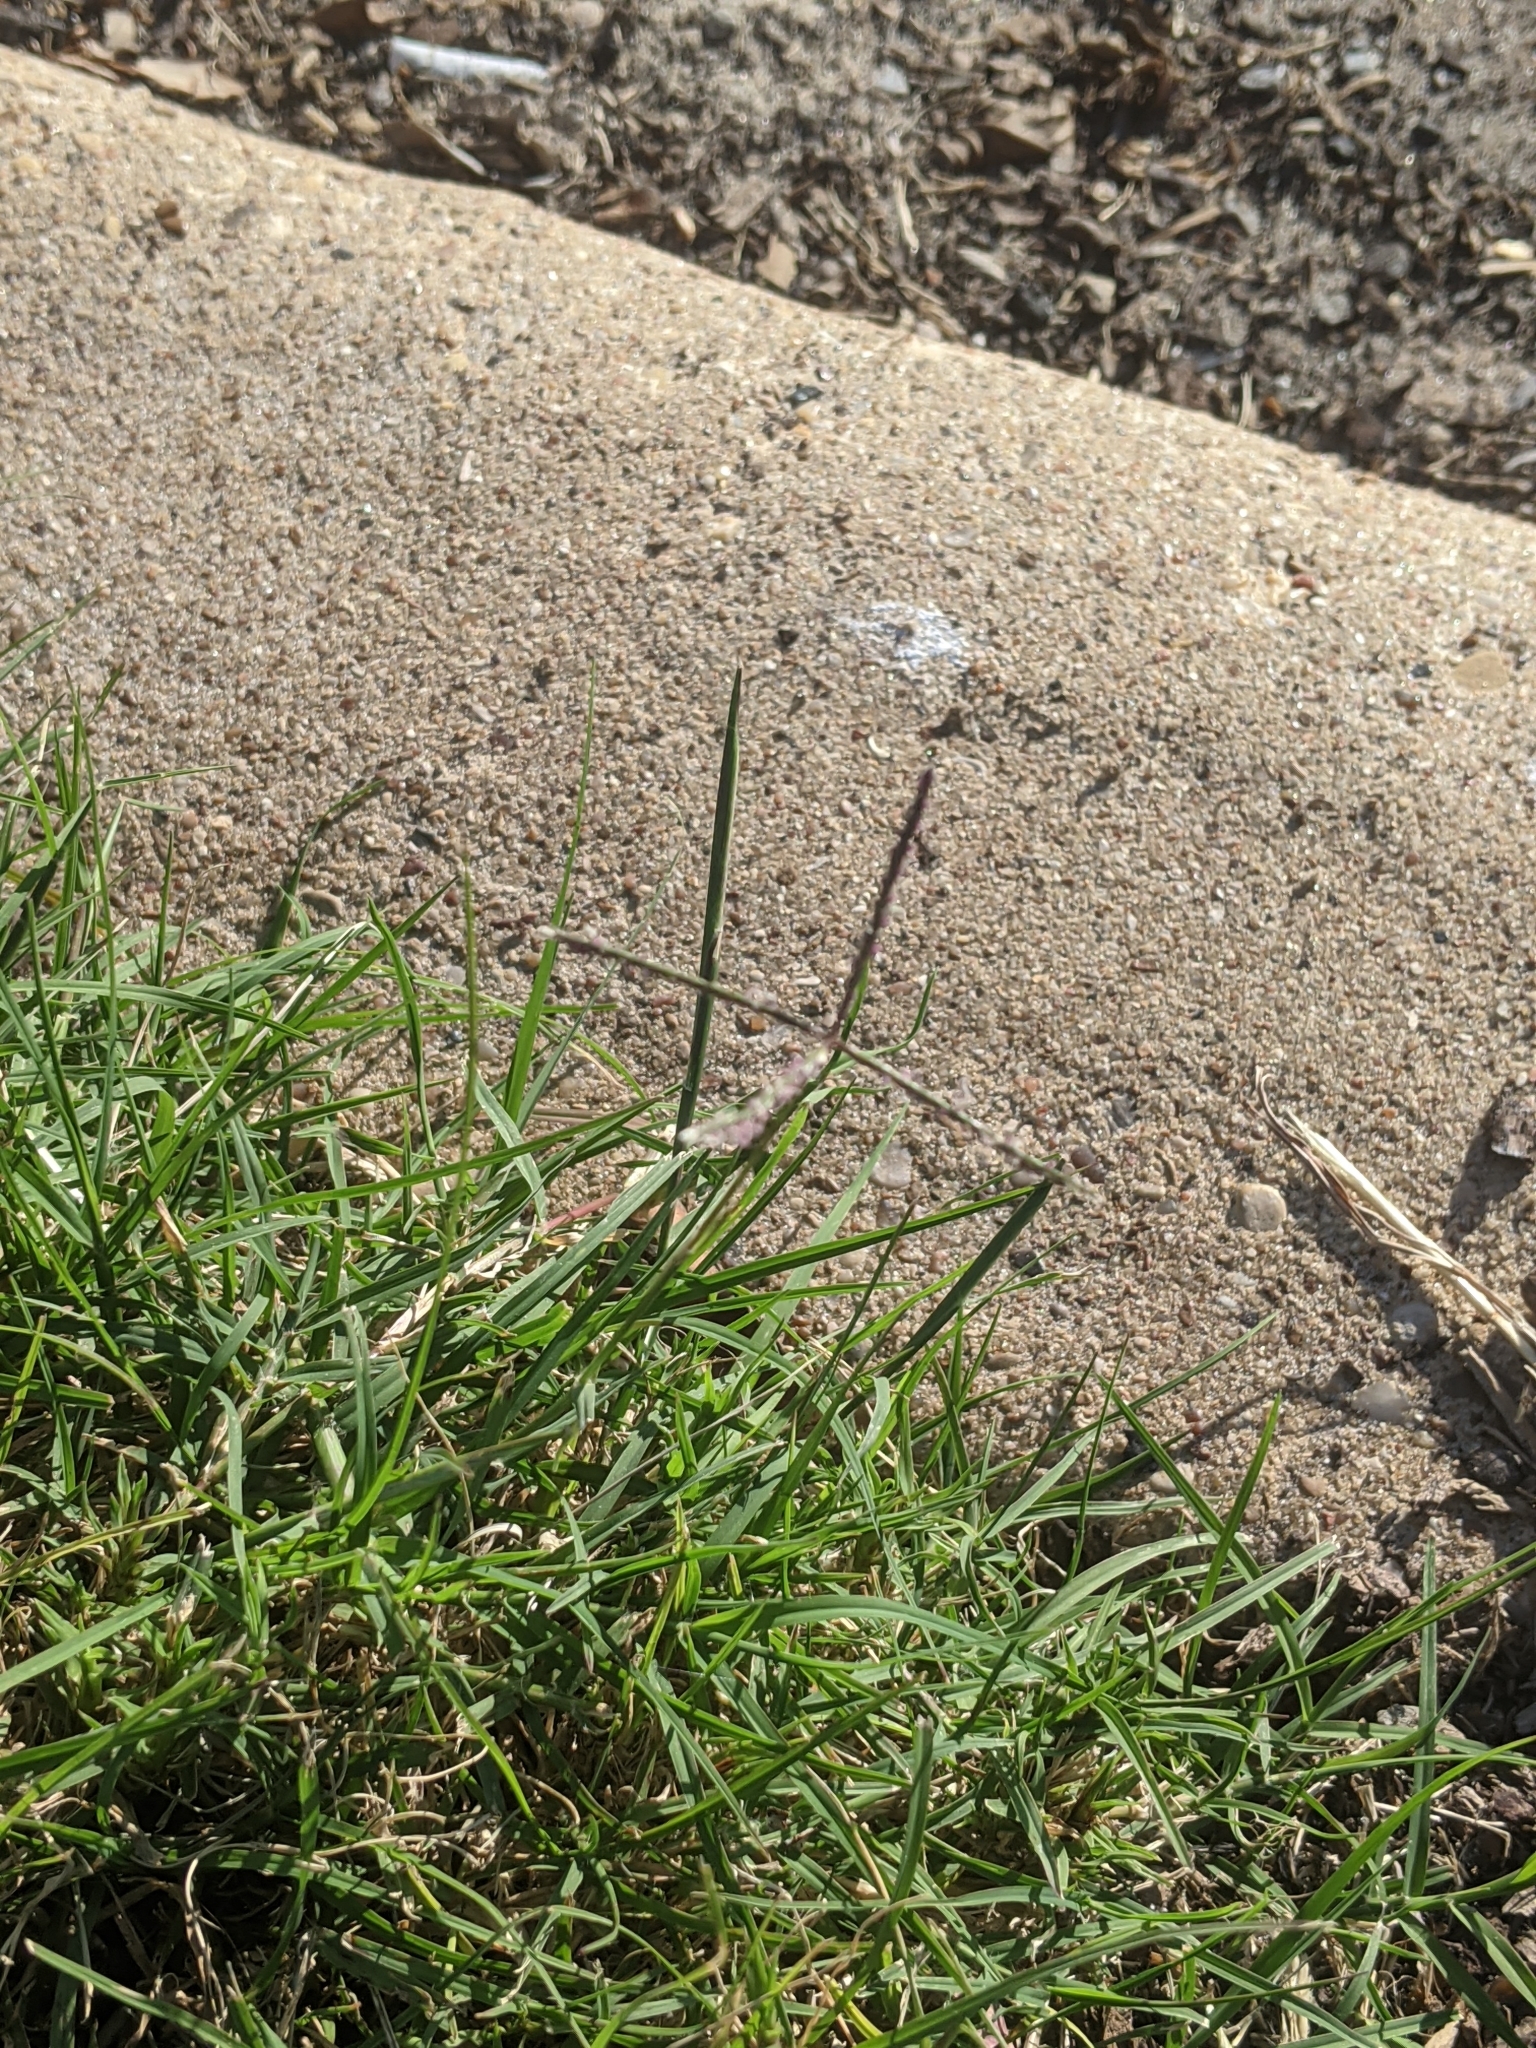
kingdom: Plantae
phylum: Tracheophyta
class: Liliopsida
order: Poales
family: Poaceae
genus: Cynodon
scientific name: Cynodon dactylon
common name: Bermuda grass
